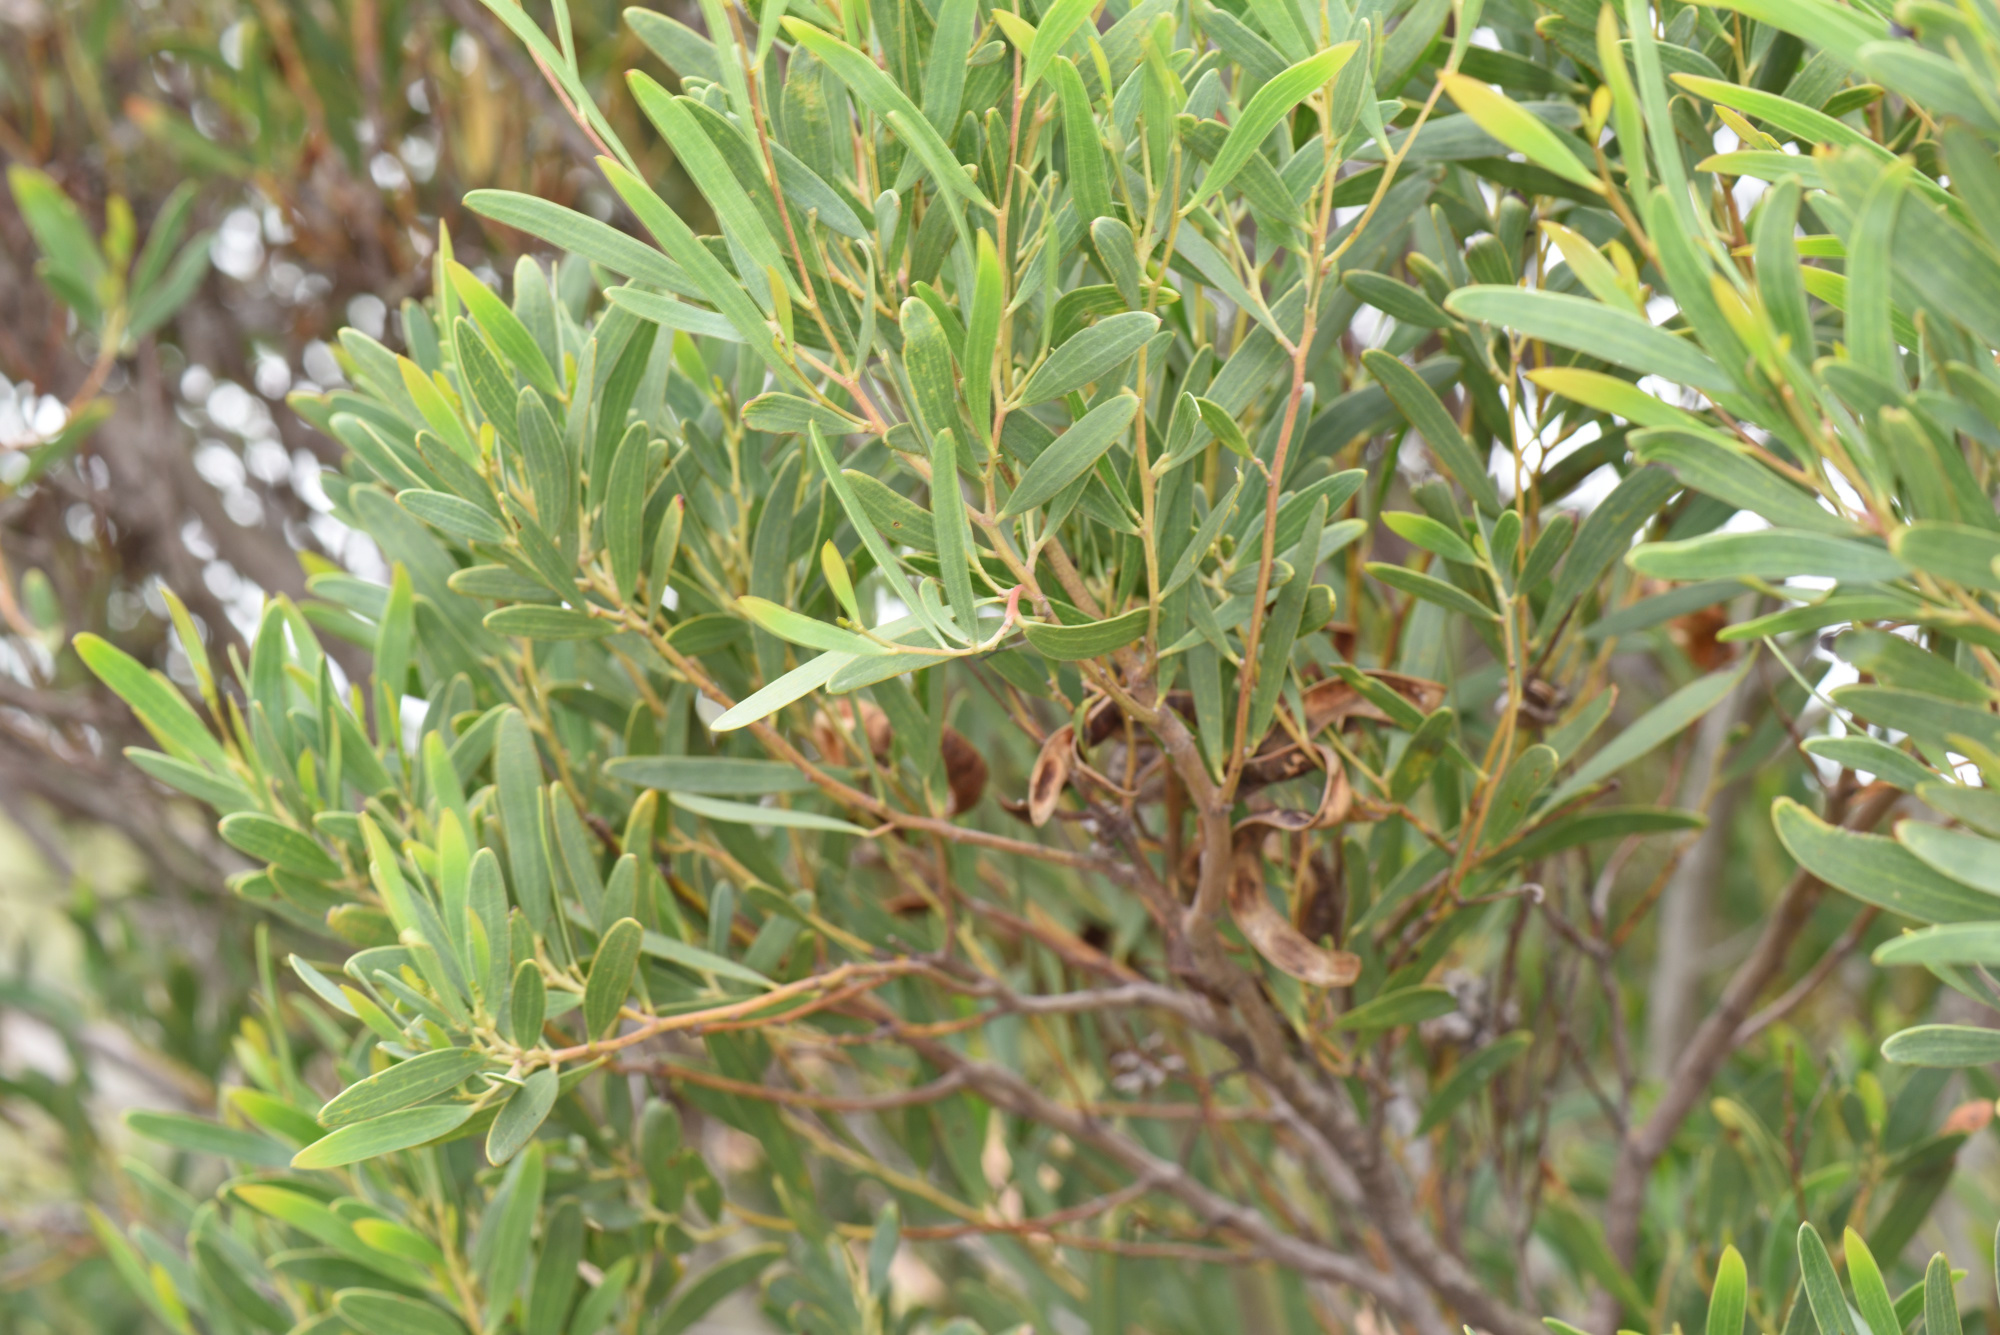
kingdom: Plantae
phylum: Tracheophyta
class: Magnoliopsida
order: Fabales
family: Fabaceae
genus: Acacia
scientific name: Acacia cyclops
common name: Coastal wattle
